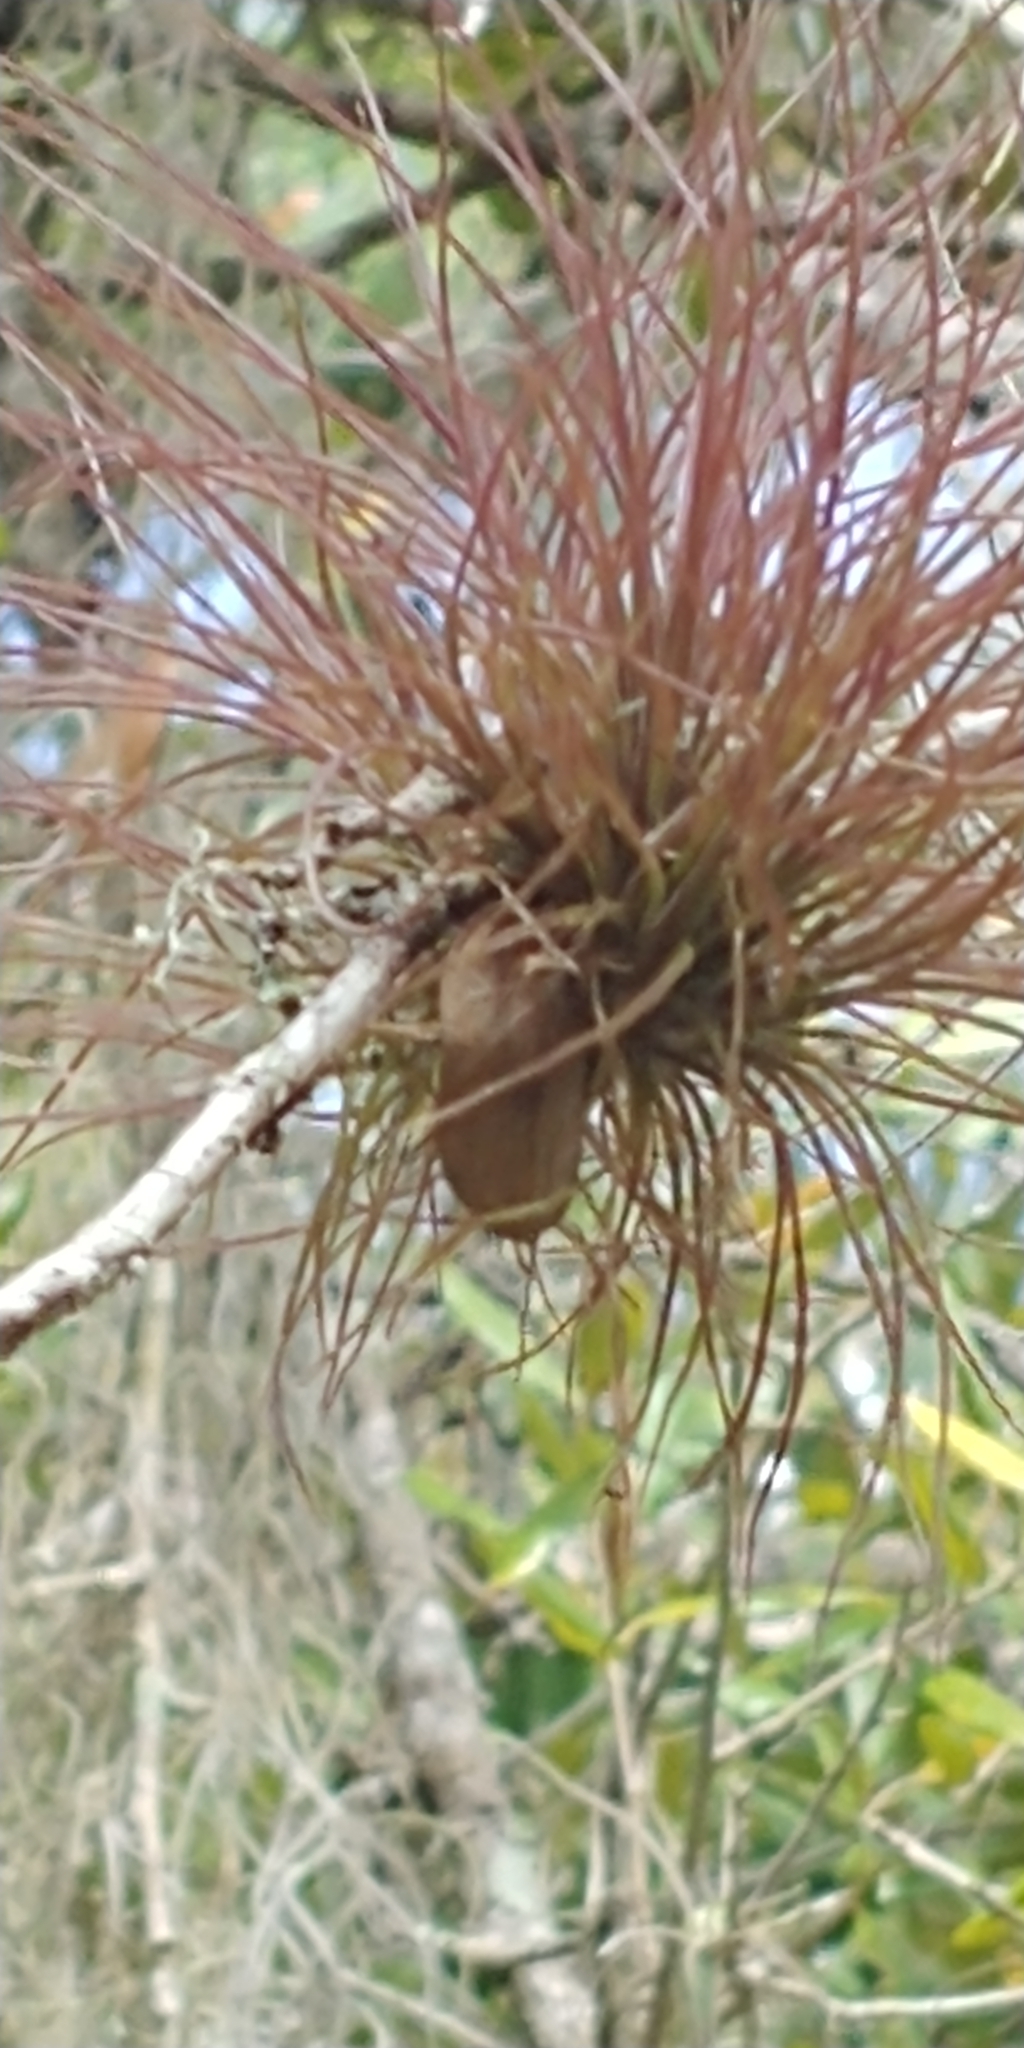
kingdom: Plantae
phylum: Tracheophyta
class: Liliopsida
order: Poales
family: Bromeliaceae
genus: Tillandsia
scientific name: Tillandsia setacea
